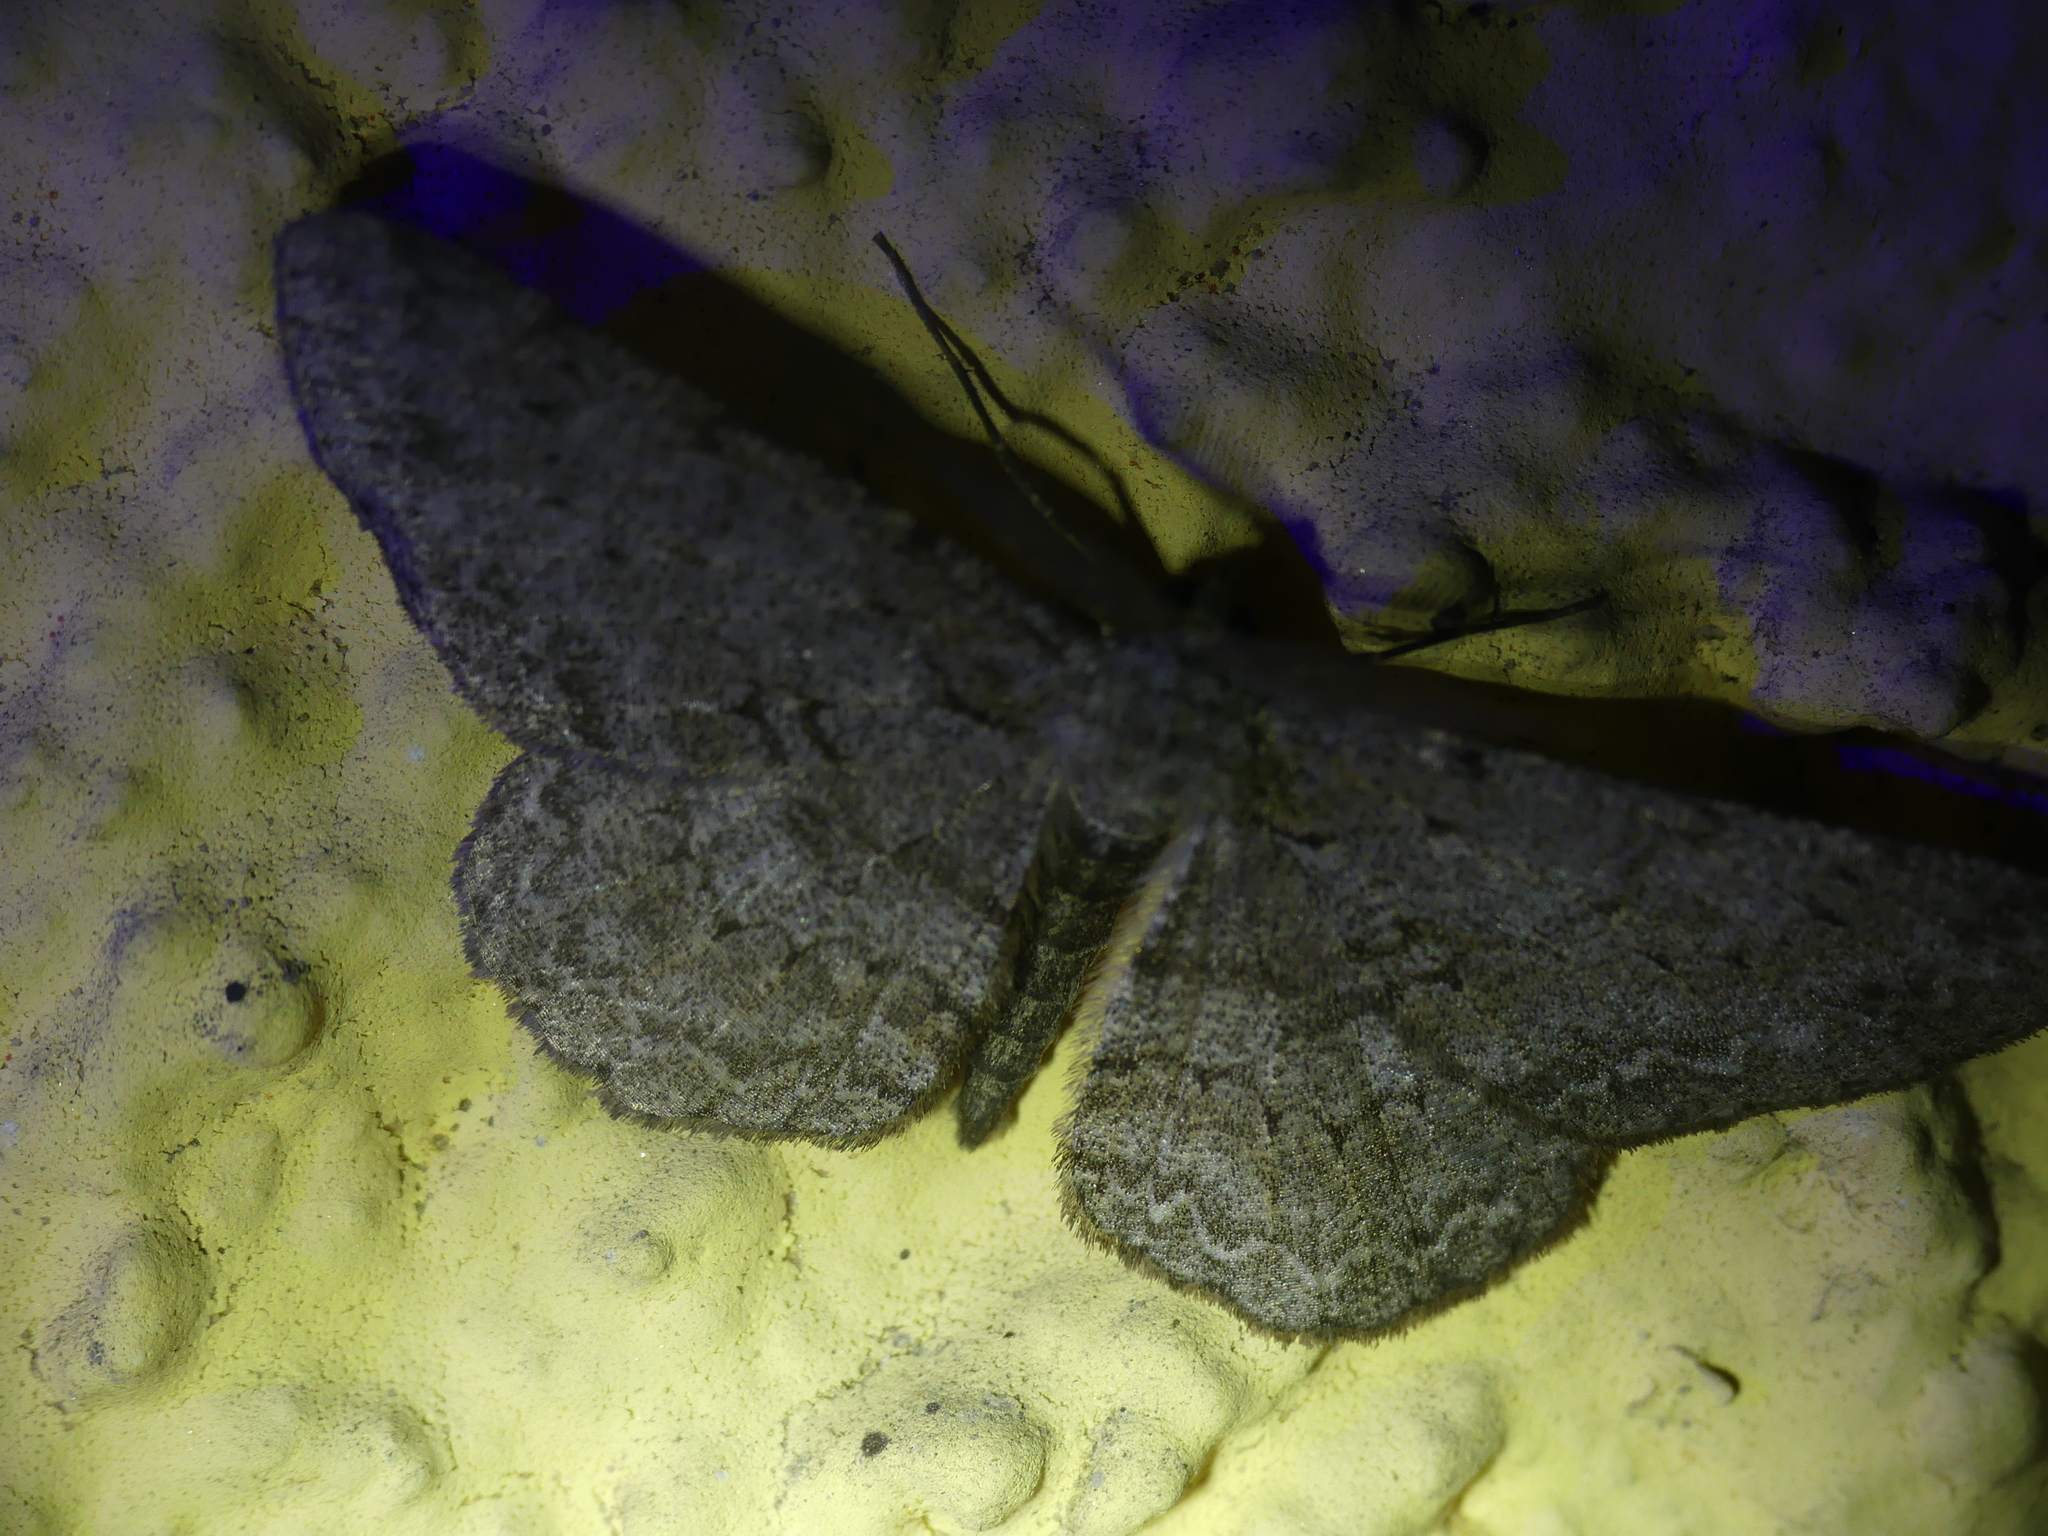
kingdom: Animalia
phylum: Arthropoda
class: Insecta
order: Lepidoptera
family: Geometridae
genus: Hypomecis
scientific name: Hypomecis punctinalis
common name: Pale oak beauty
